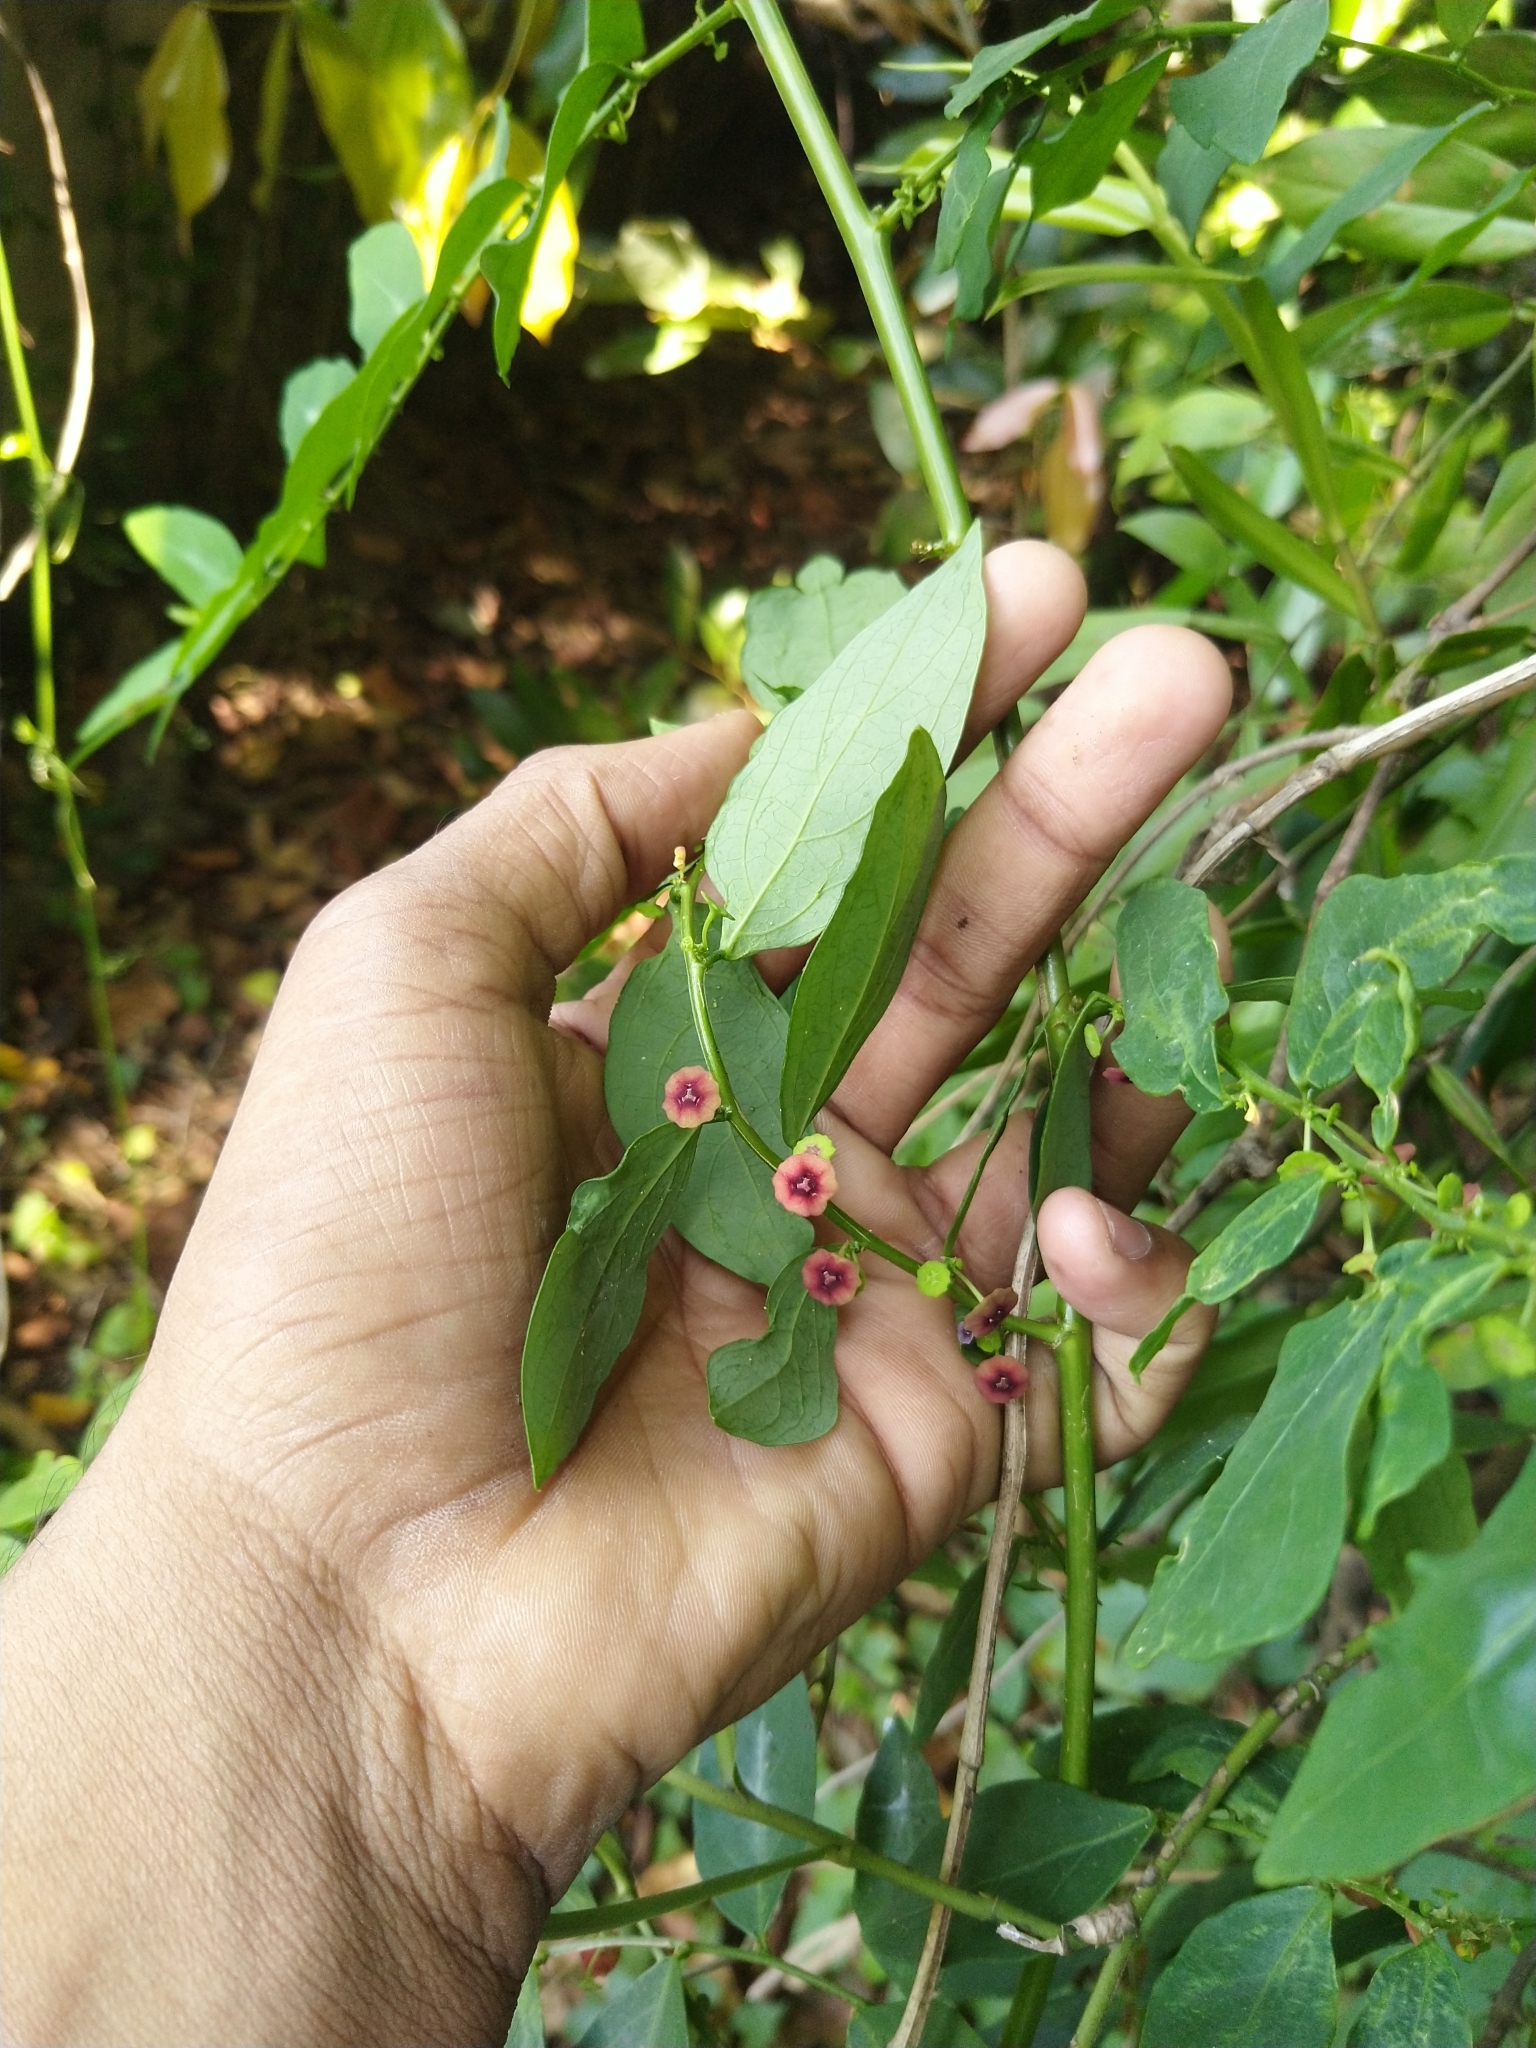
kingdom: Plantae
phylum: Tracheophyta
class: Magnoliopsida
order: Malpighiales
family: Phyllanthaceae
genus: Breynia
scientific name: Breynia androgyna
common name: Star gooseberry
